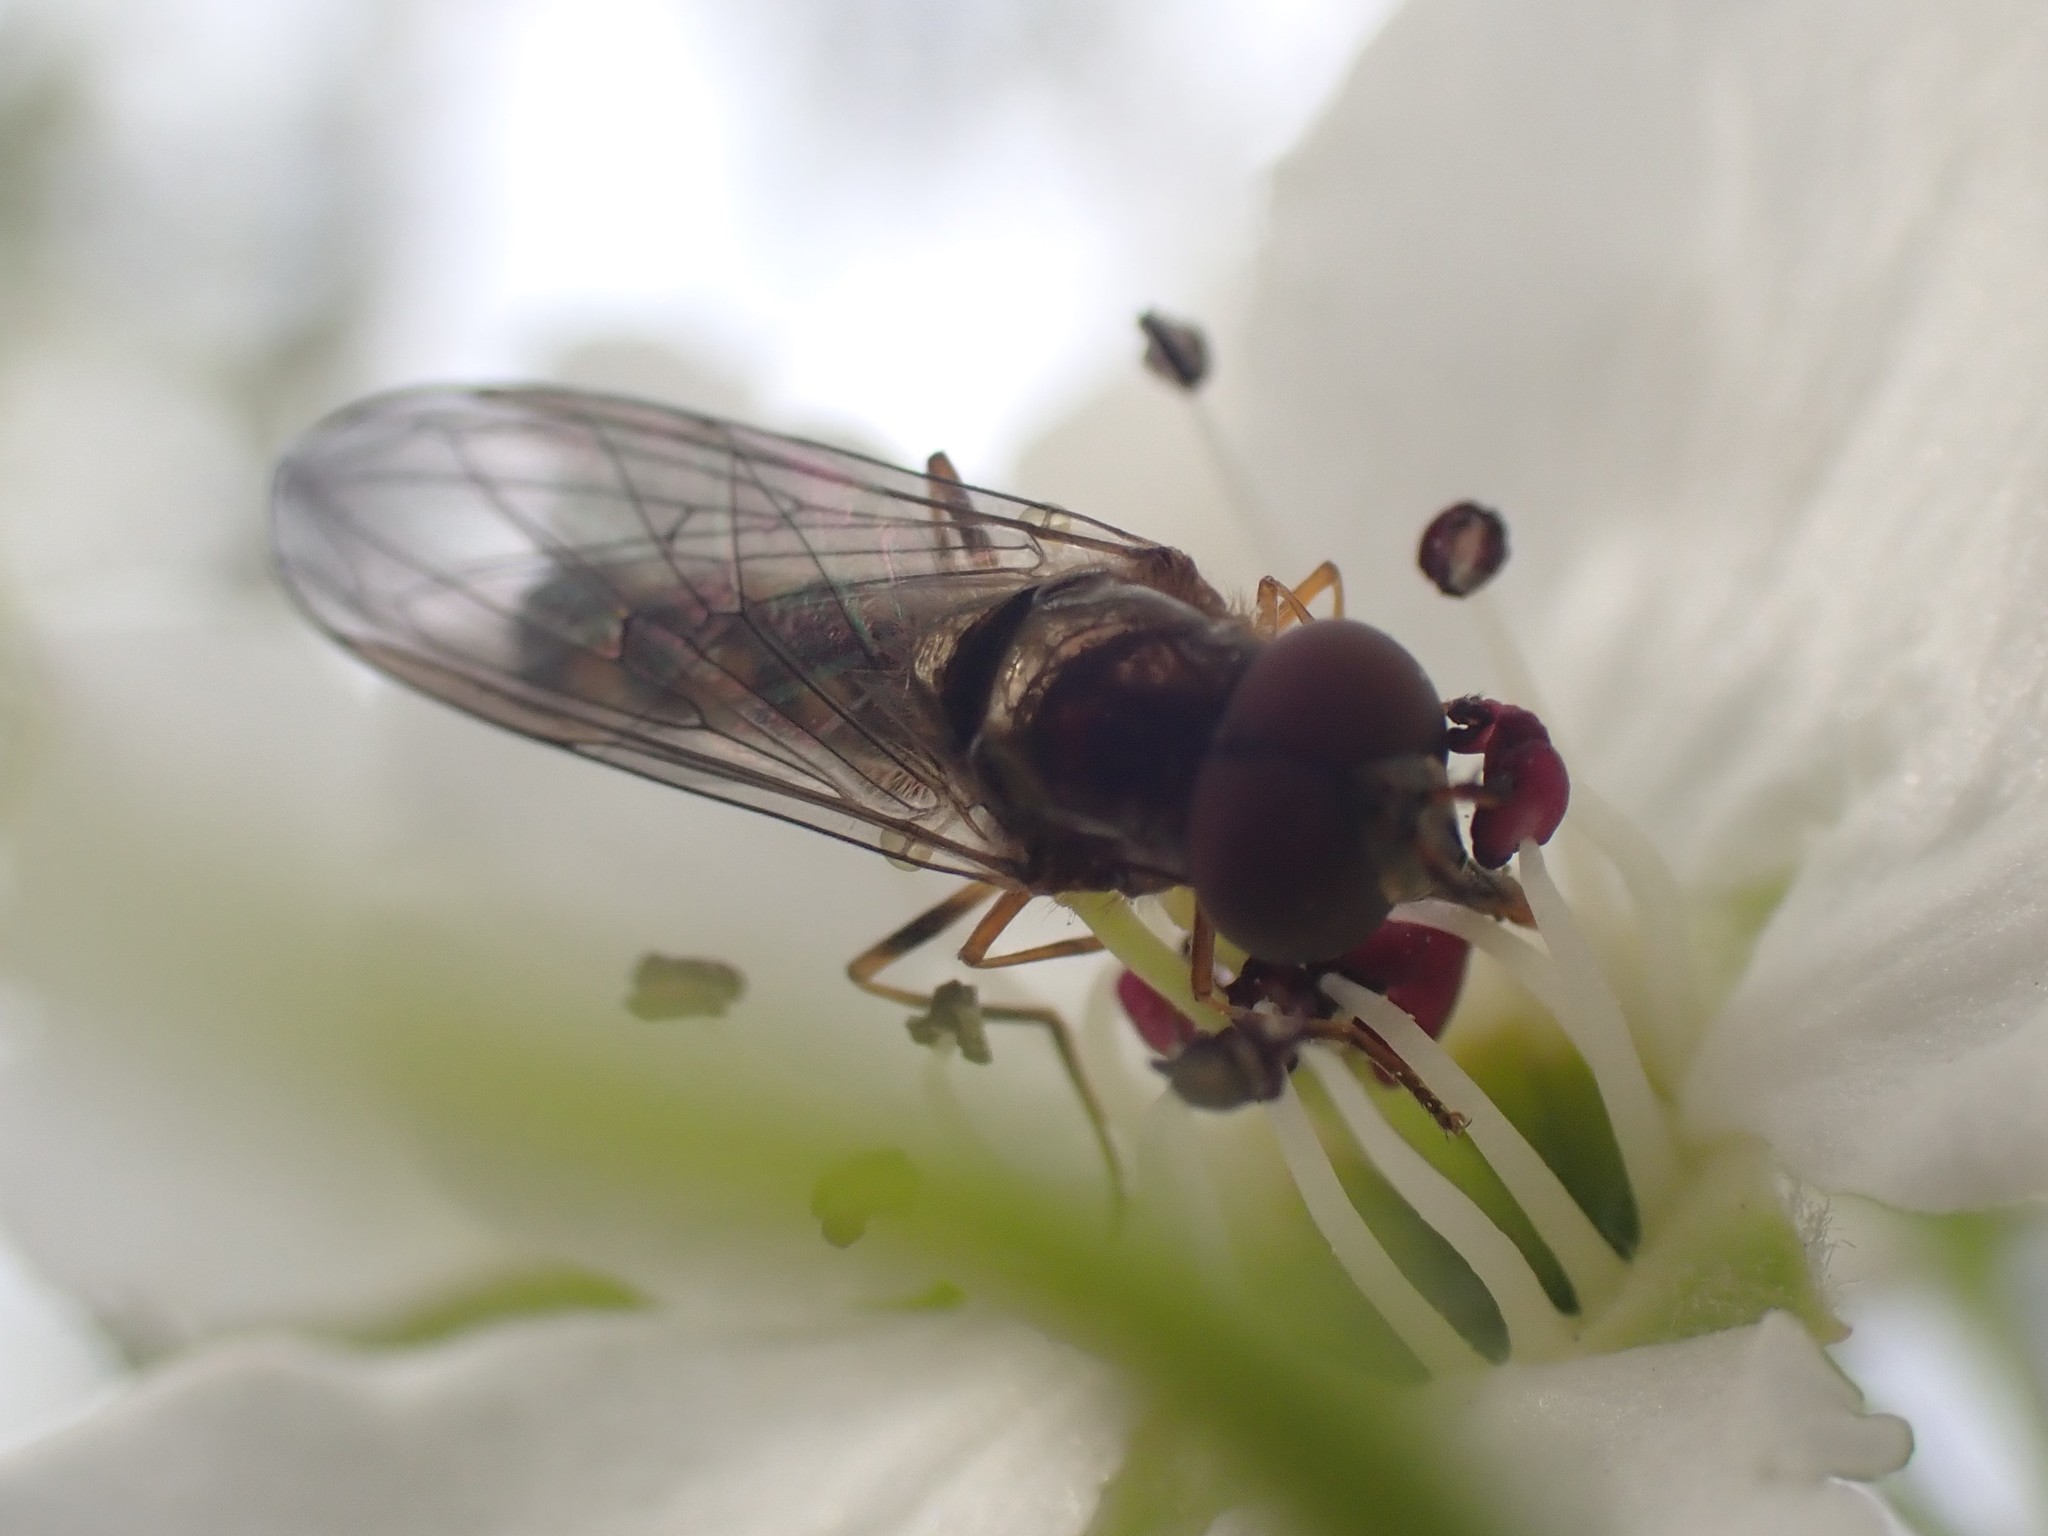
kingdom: Animalia
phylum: Arthropoda
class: Insecta
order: Diptera
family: Syrphidae
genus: Melanostoma
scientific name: Melanostoma mellina
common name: Hover fly
